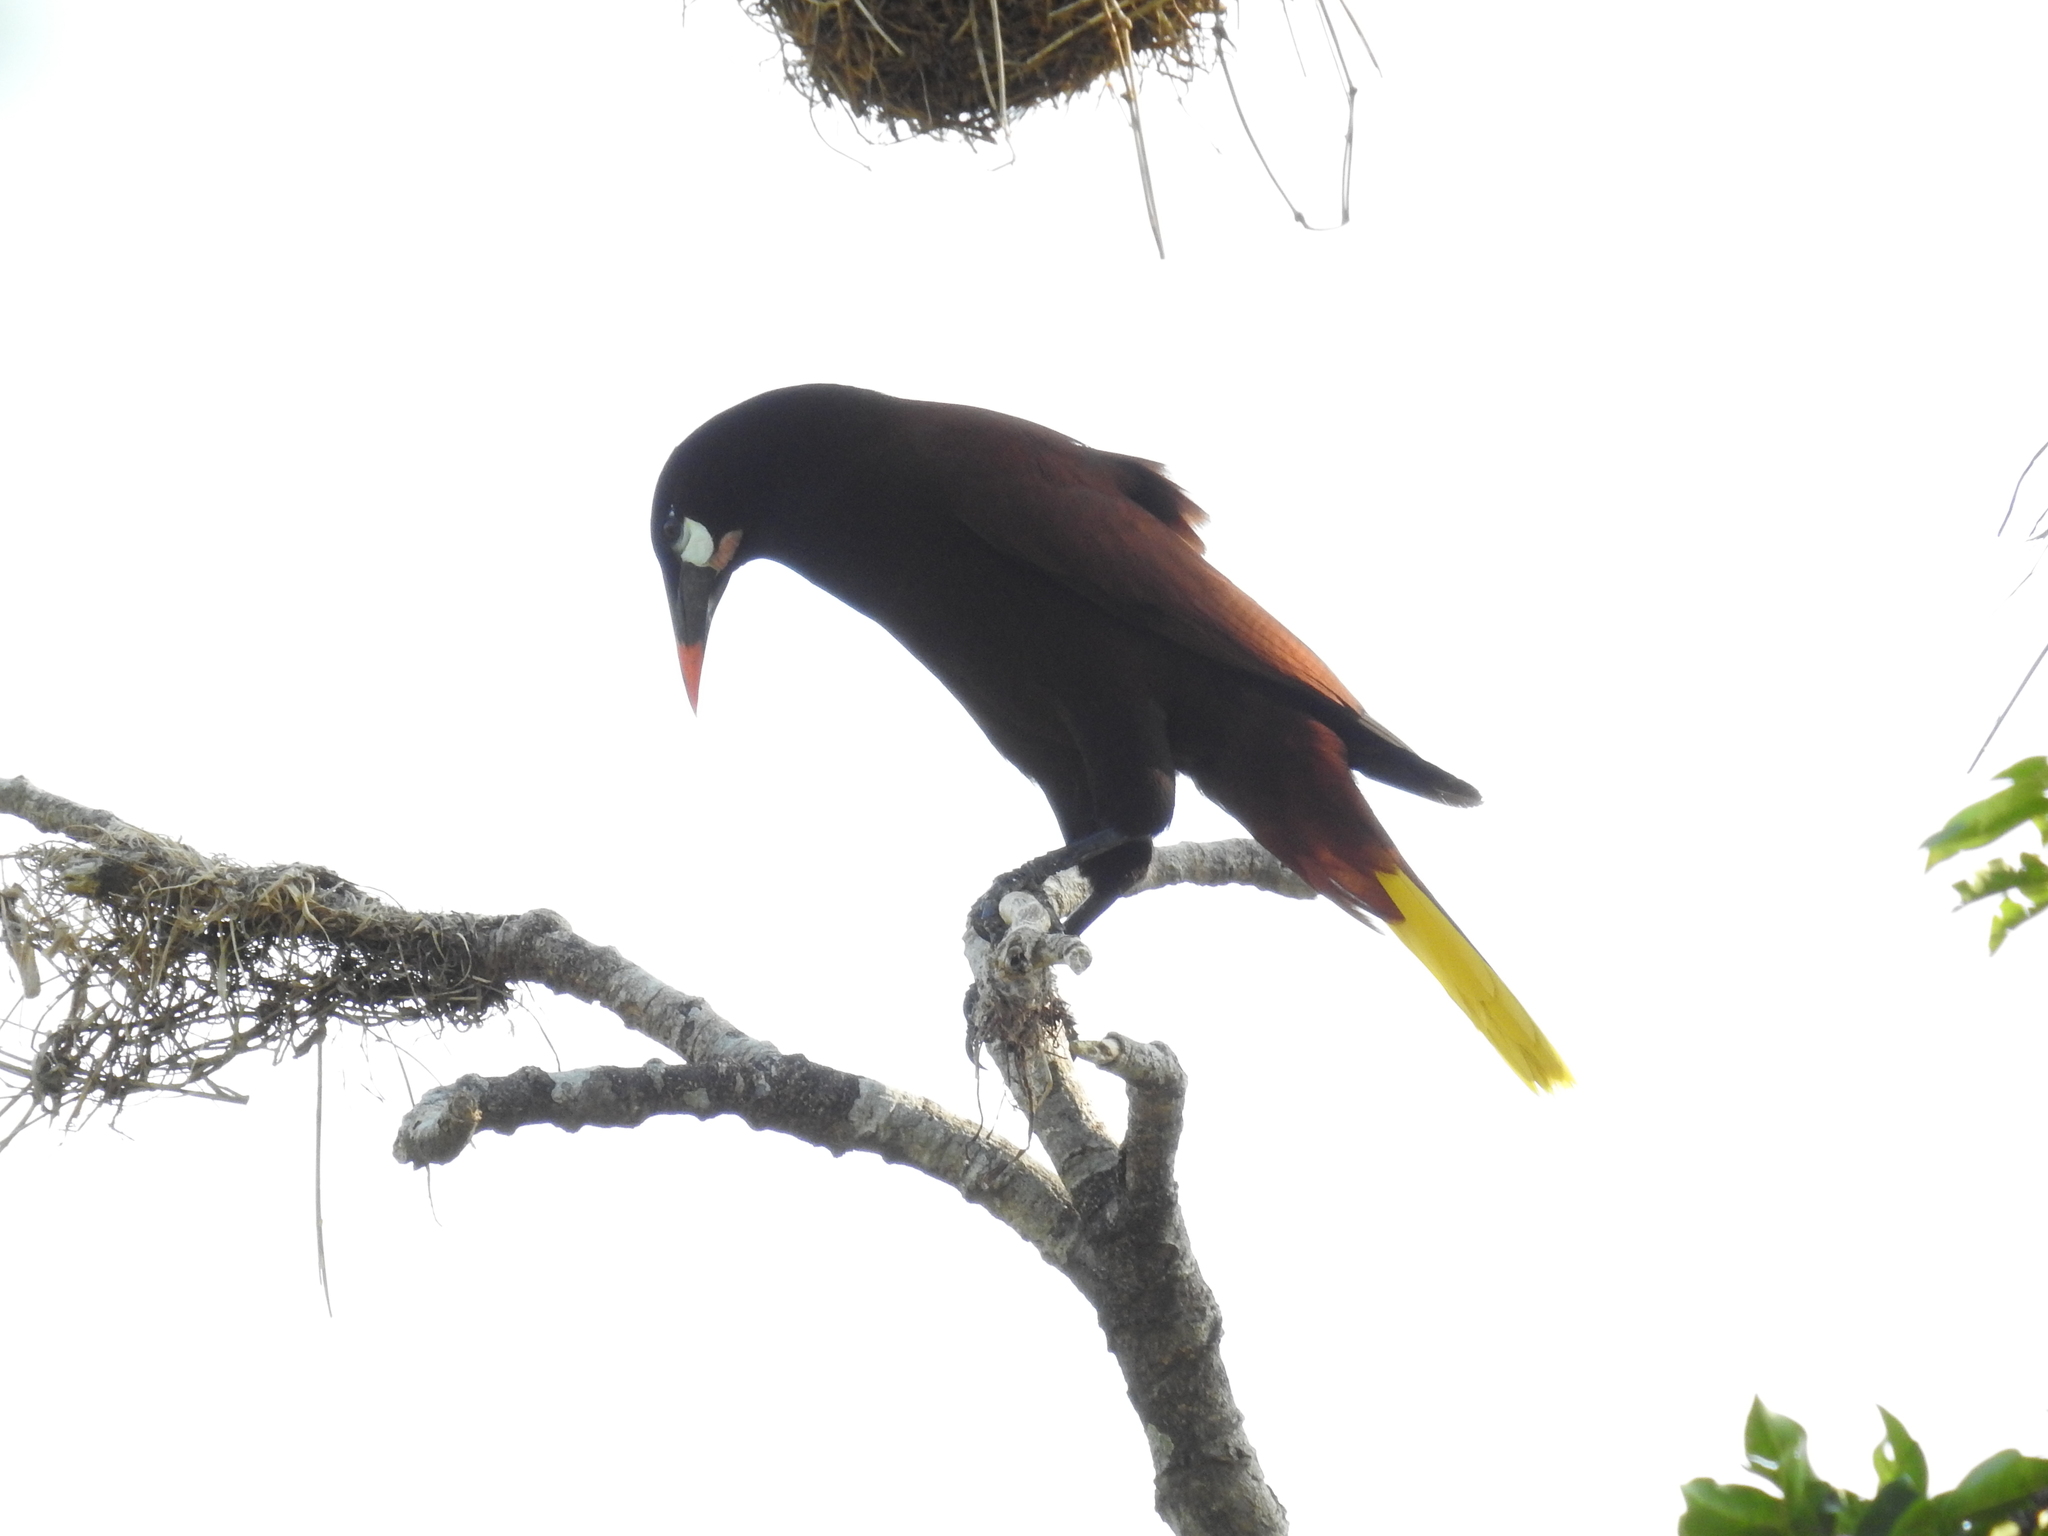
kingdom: Animalia
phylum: Chordata
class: Aves
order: Passeriformes
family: Icteridae
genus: Psarocolius
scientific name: Psarocolius montezuma
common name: Montezuma oropendola
